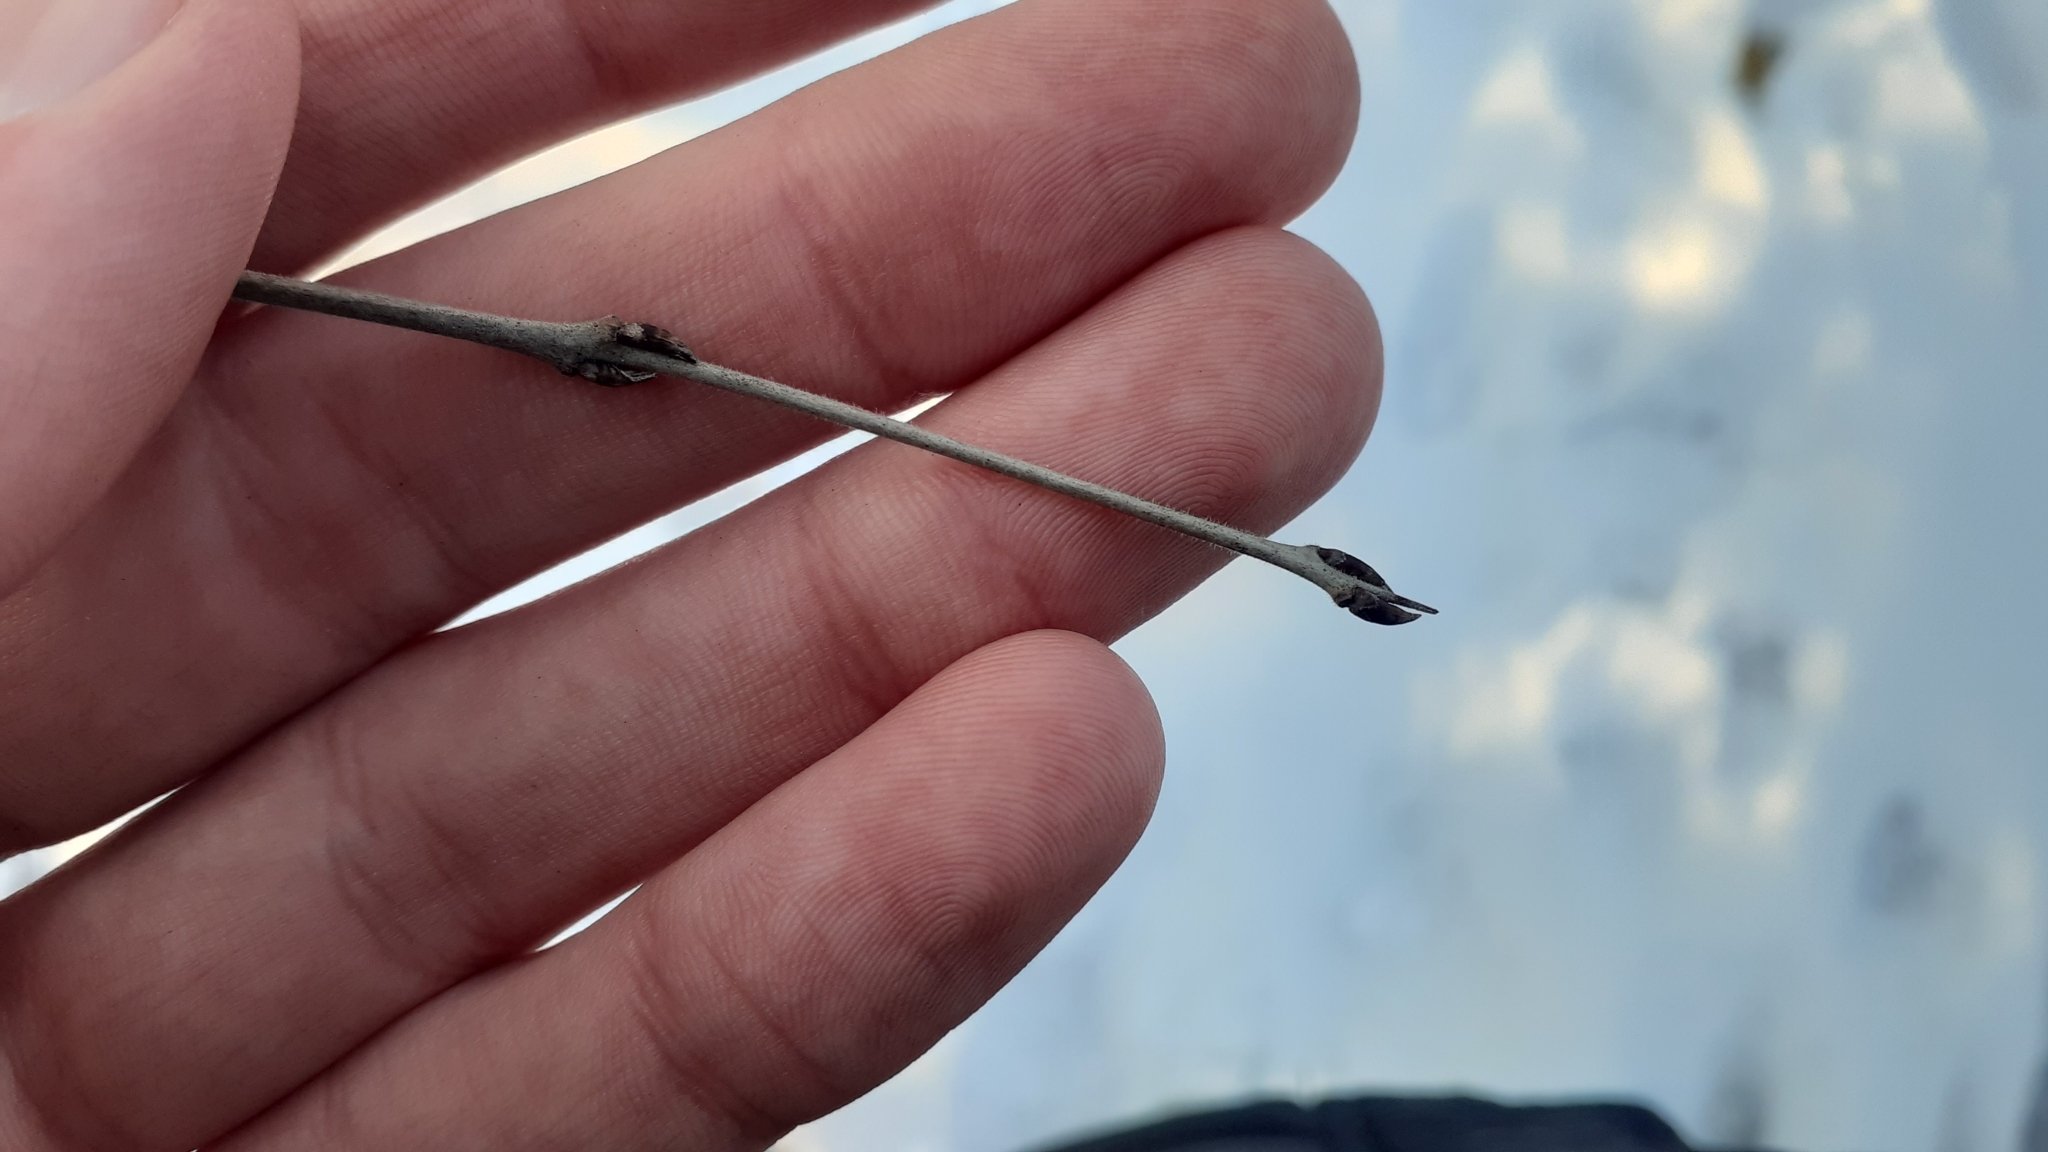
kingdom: Plantae
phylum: Tracheophyta
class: Magnoliopsida
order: Rosales
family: Rhamnaceae
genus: Rhamnus
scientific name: Rhamnus cathartica
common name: Common buckthorn
